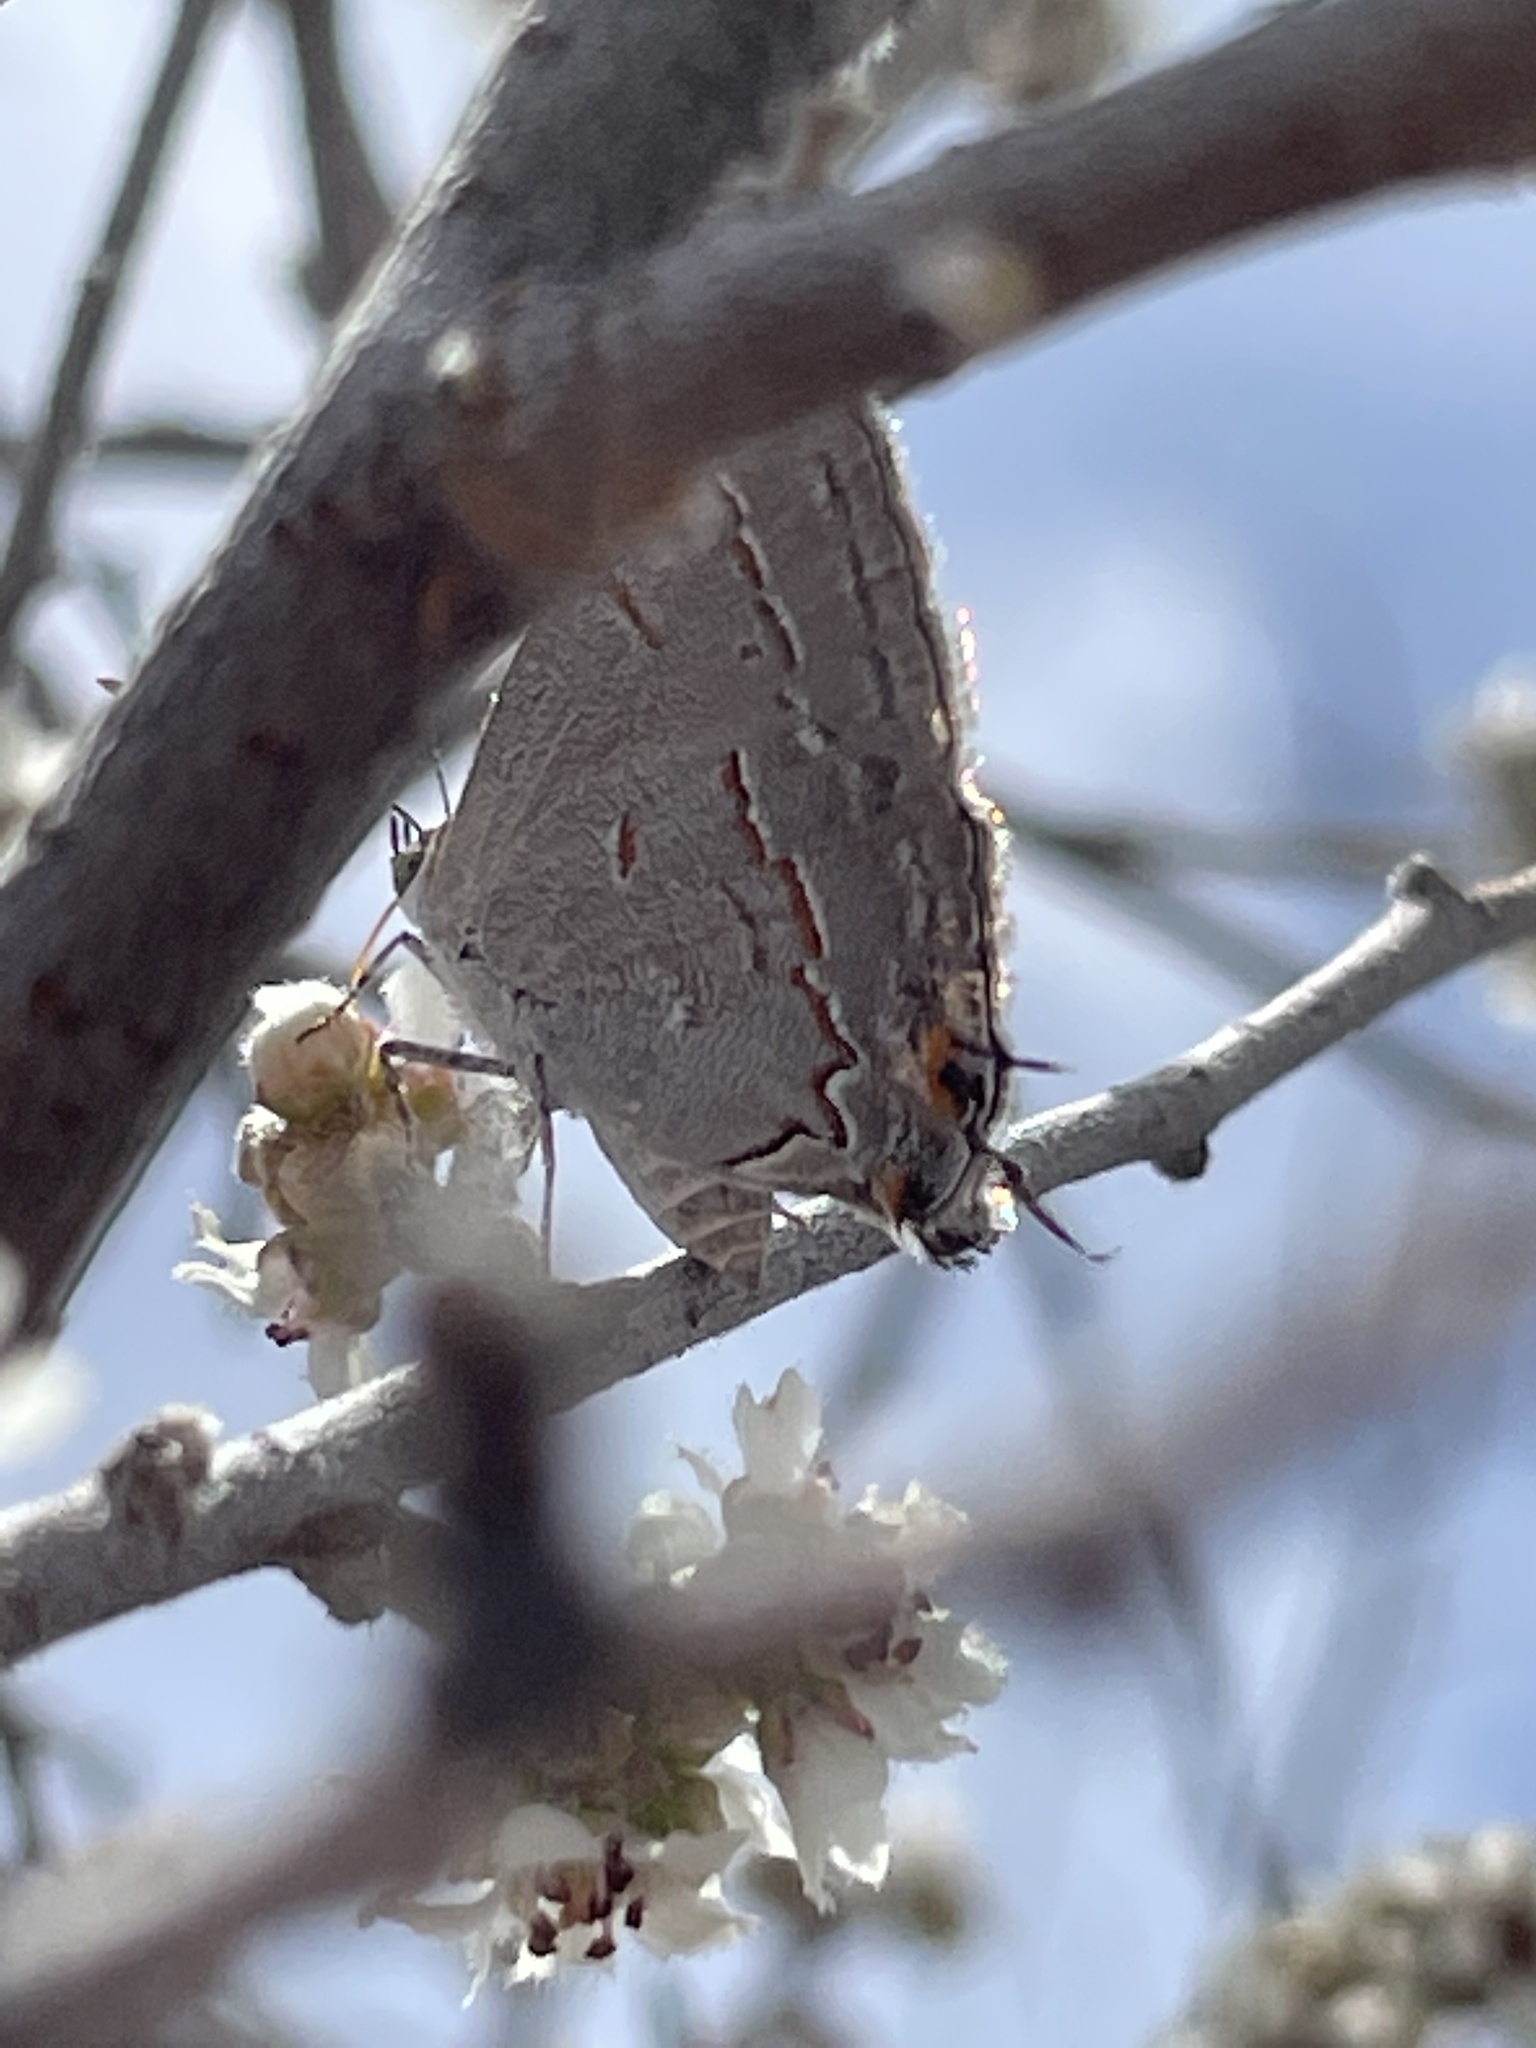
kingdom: Animalia
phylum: Arthropoda
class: Insecta
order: Lepidoptera
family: Lycaenidae
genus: Ministrymon
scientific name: Ministrymon leda
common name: Leda ministreak
